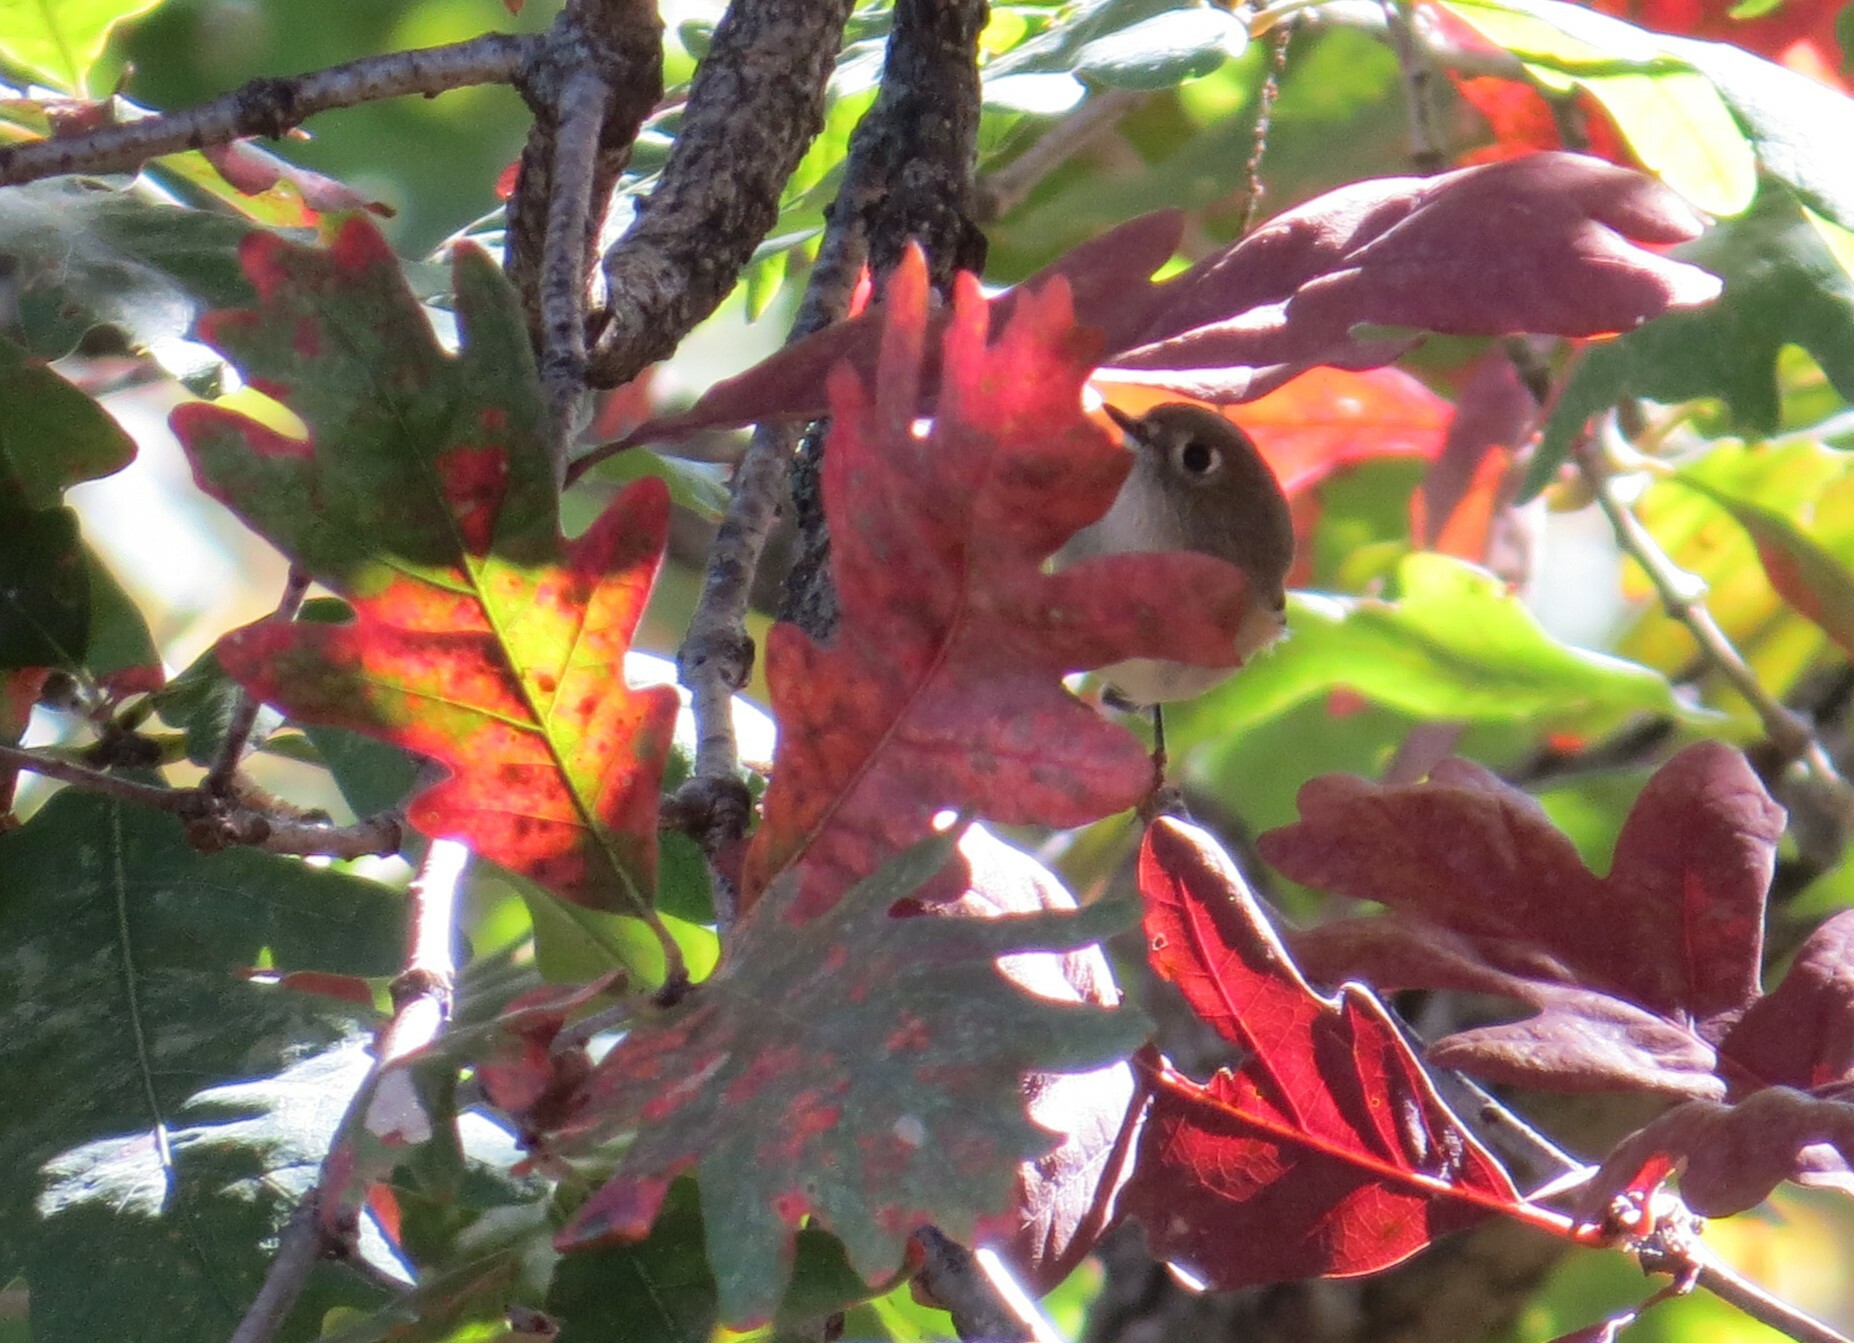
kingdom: Animalia
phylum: Chordata
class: Aves
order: Passeriformes
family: Regulidae
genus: Regulus
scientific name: Regulus calendula
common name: Ruby-crowned kinglet
